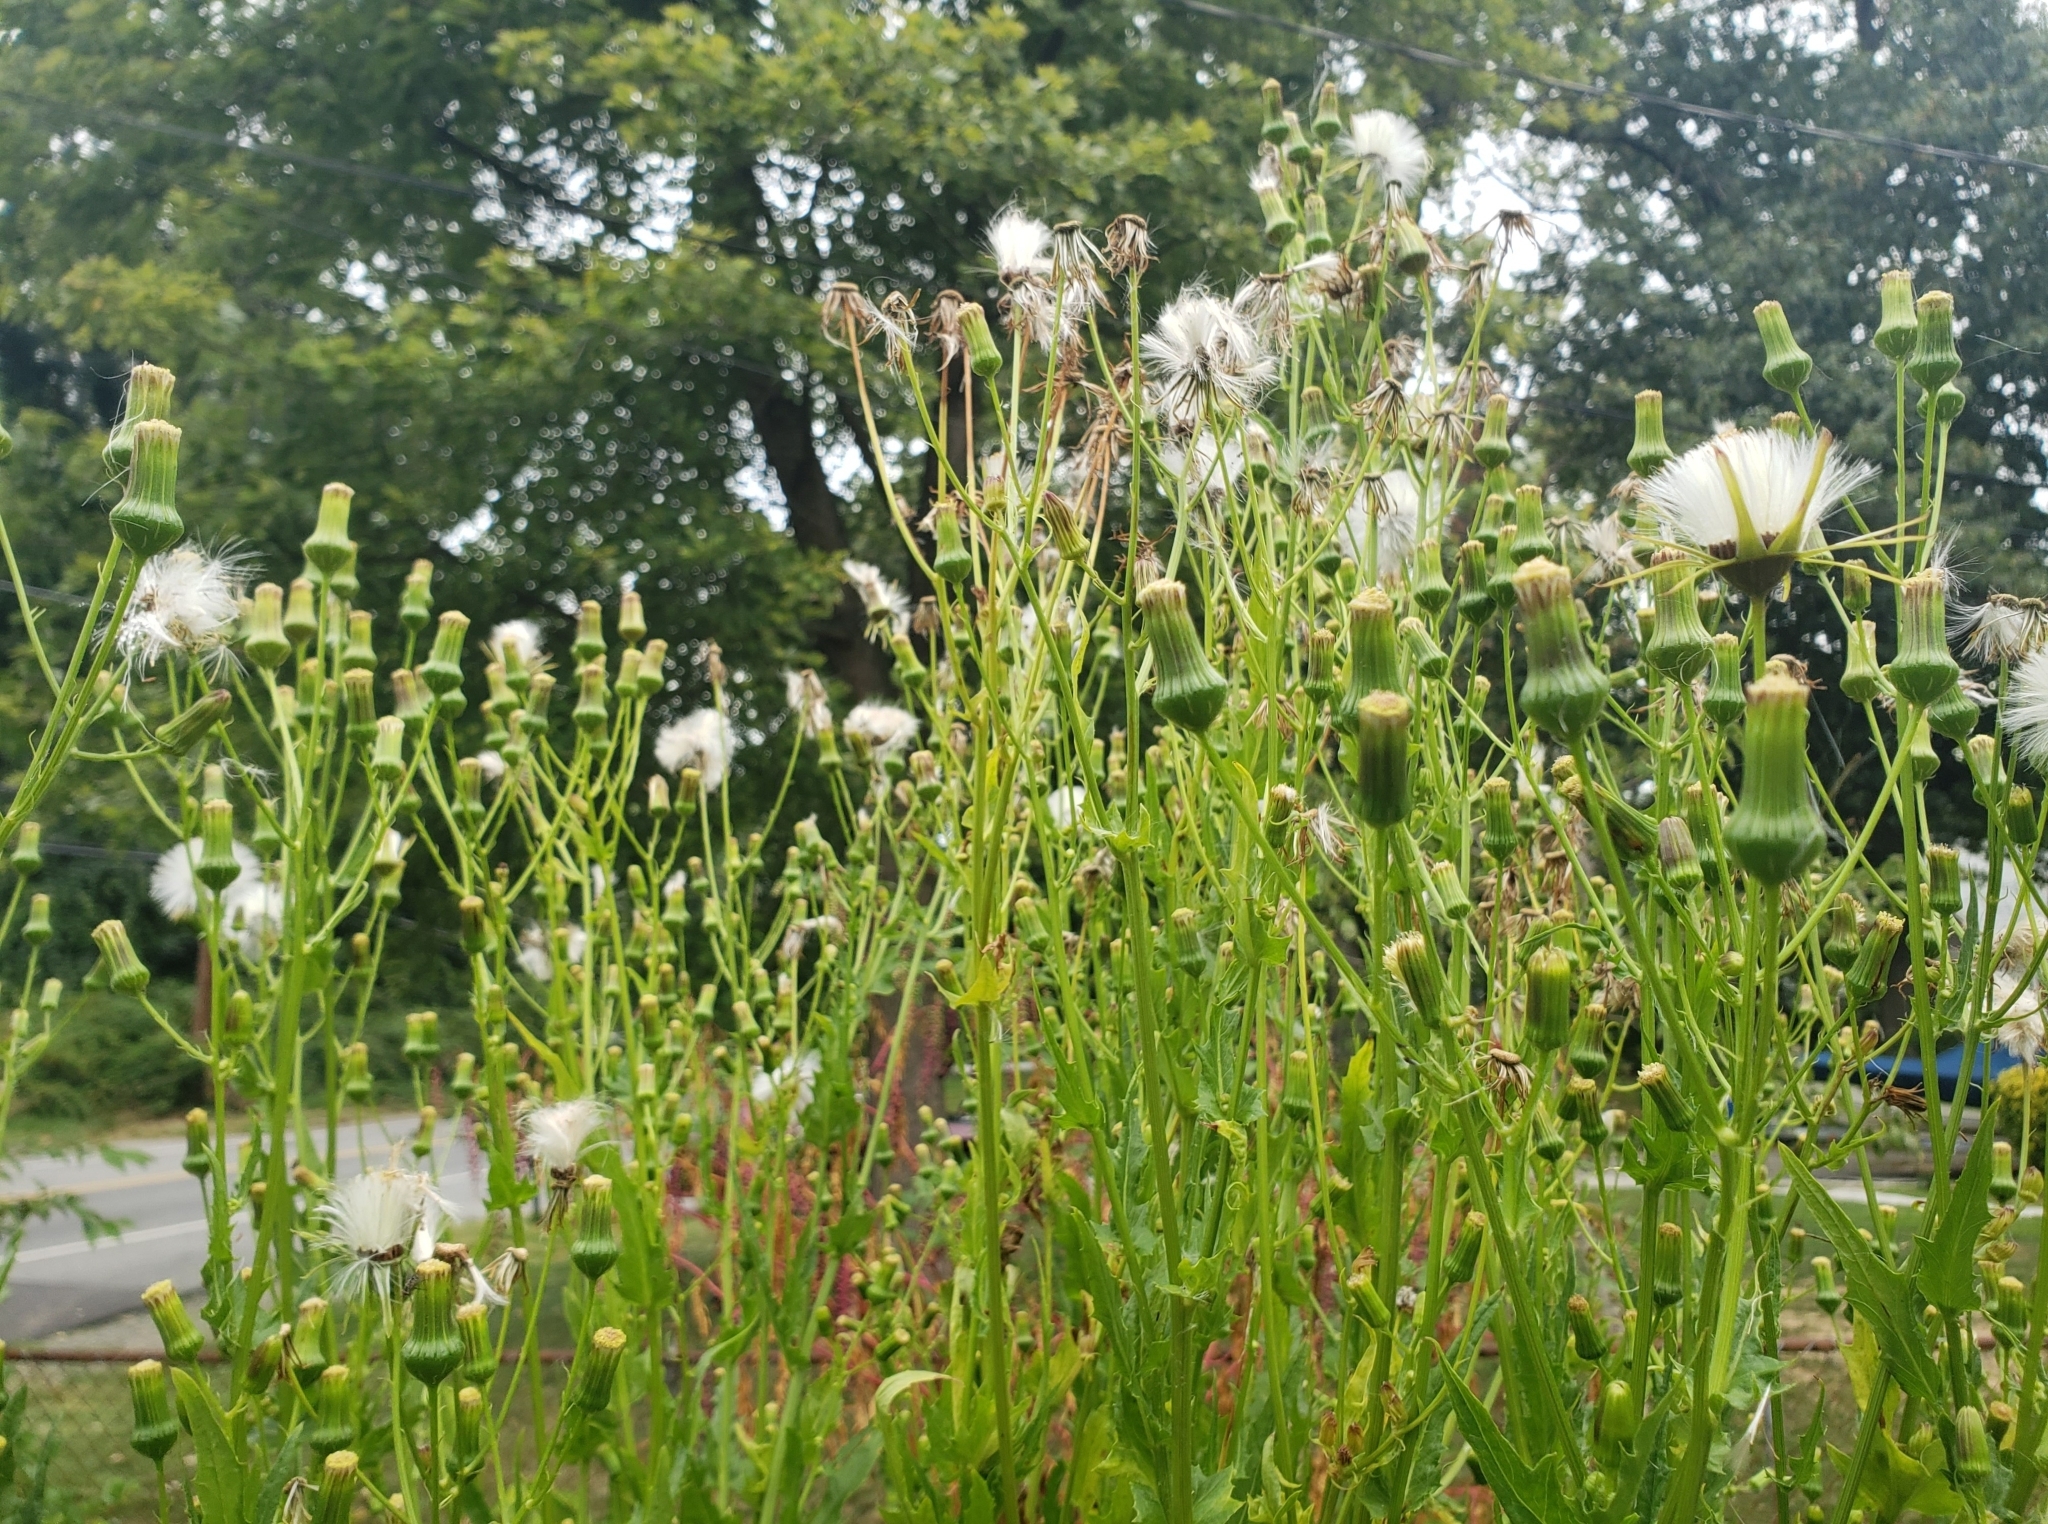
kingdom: Plantae
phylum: Tracheophyta
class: Magnoliopsida
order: Asterales
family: Asteraceae
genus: Erechtites
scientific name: Erechtites hieraciifolius
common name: American burnweed
